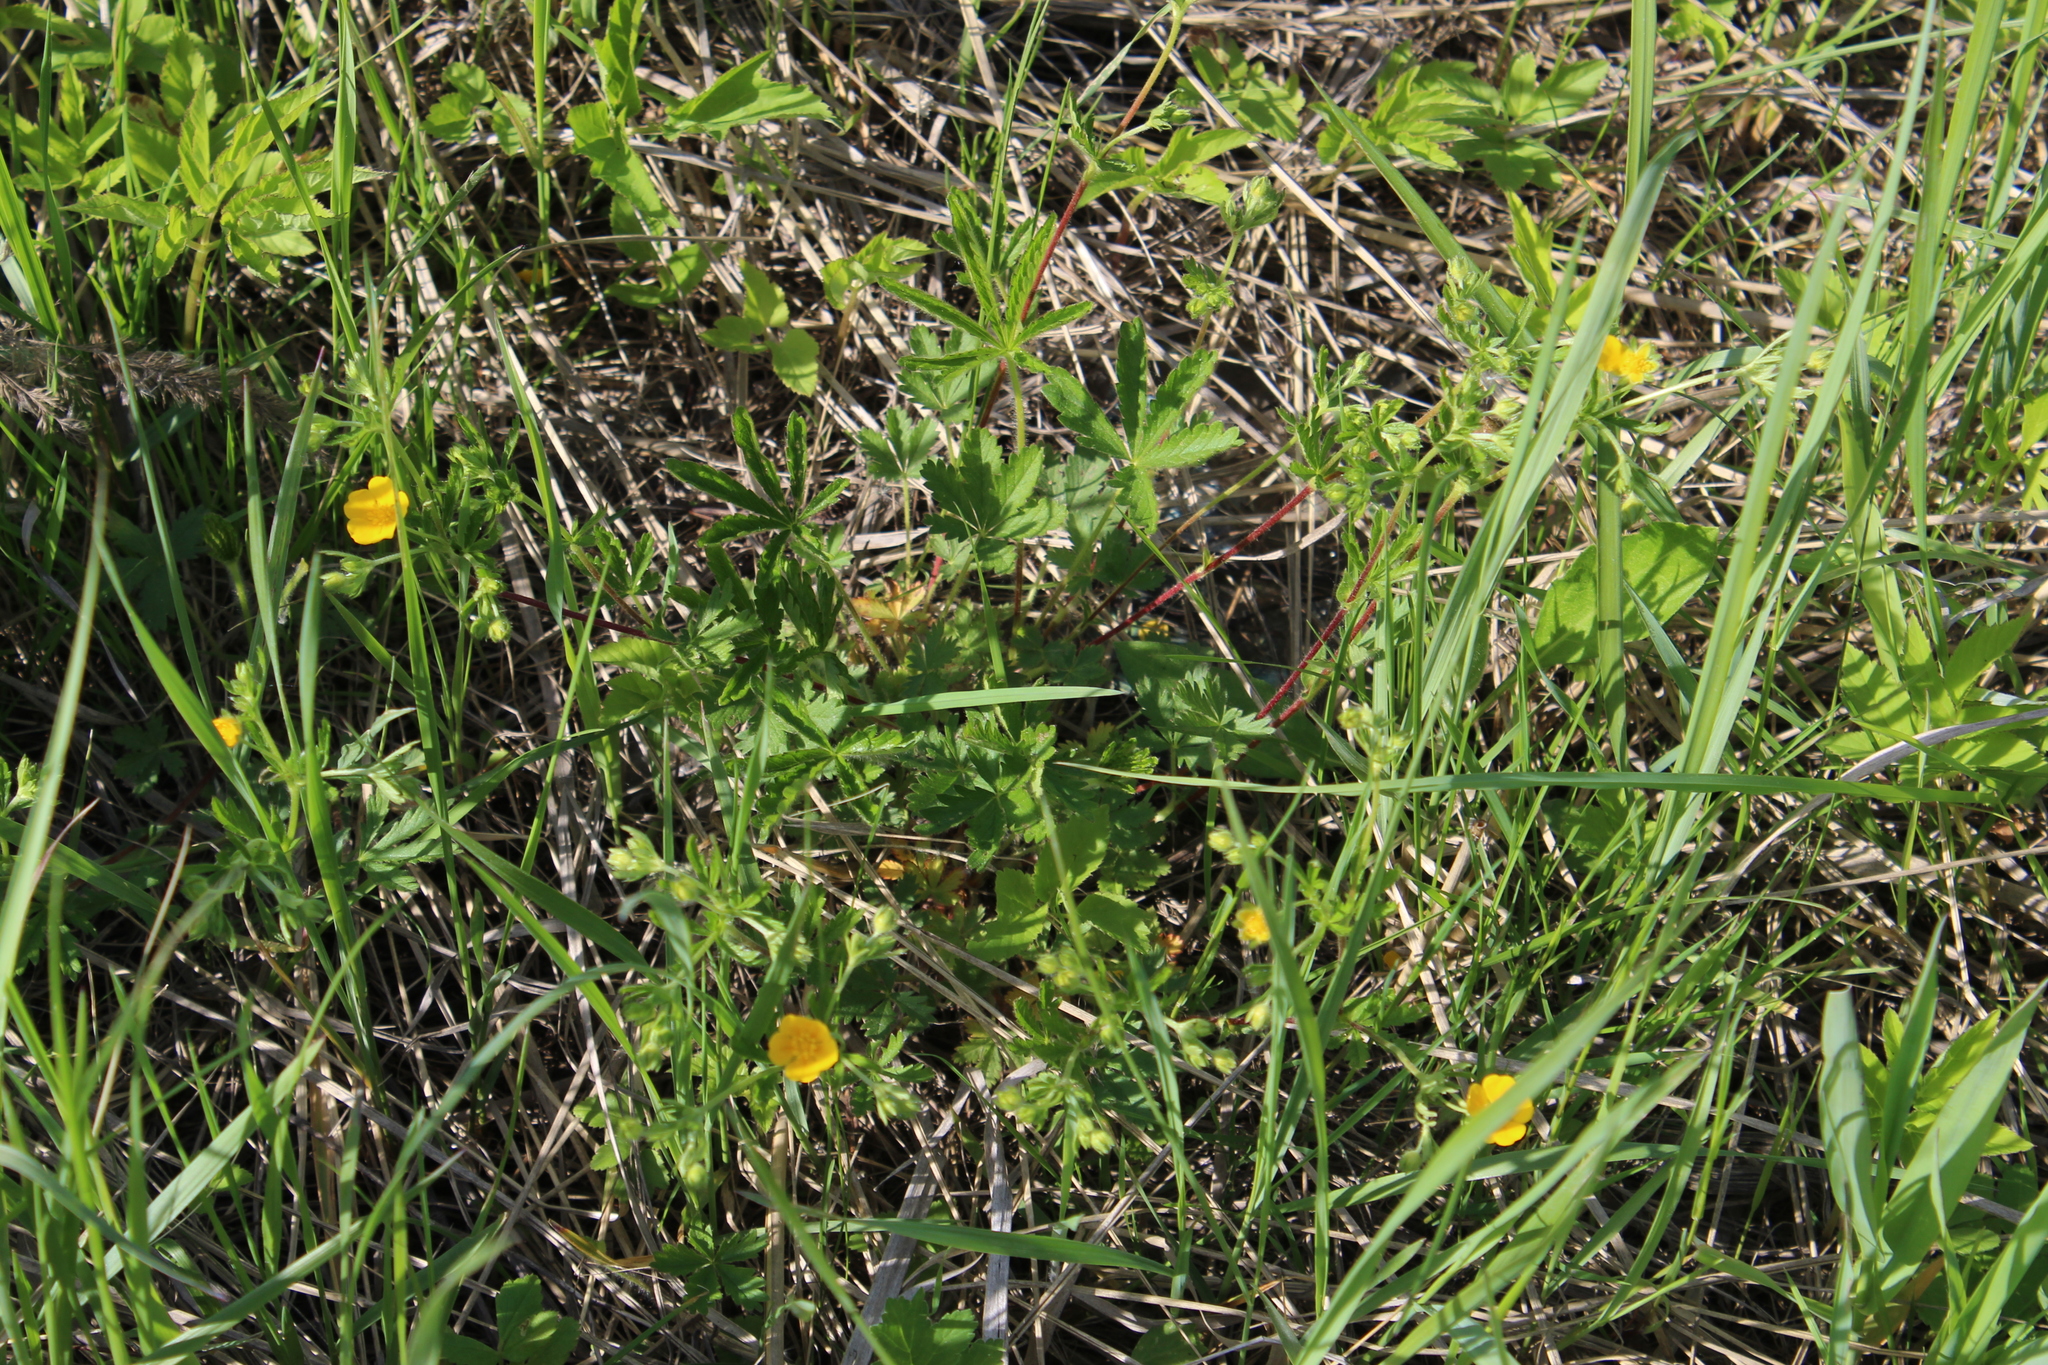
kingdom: Plantae
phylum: Tracheophyta
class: Magnoliopsida
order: Rosales
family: Rosaceae
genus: Potentilla
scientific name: Potentilla thuringiaca
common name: European cinquefoil
